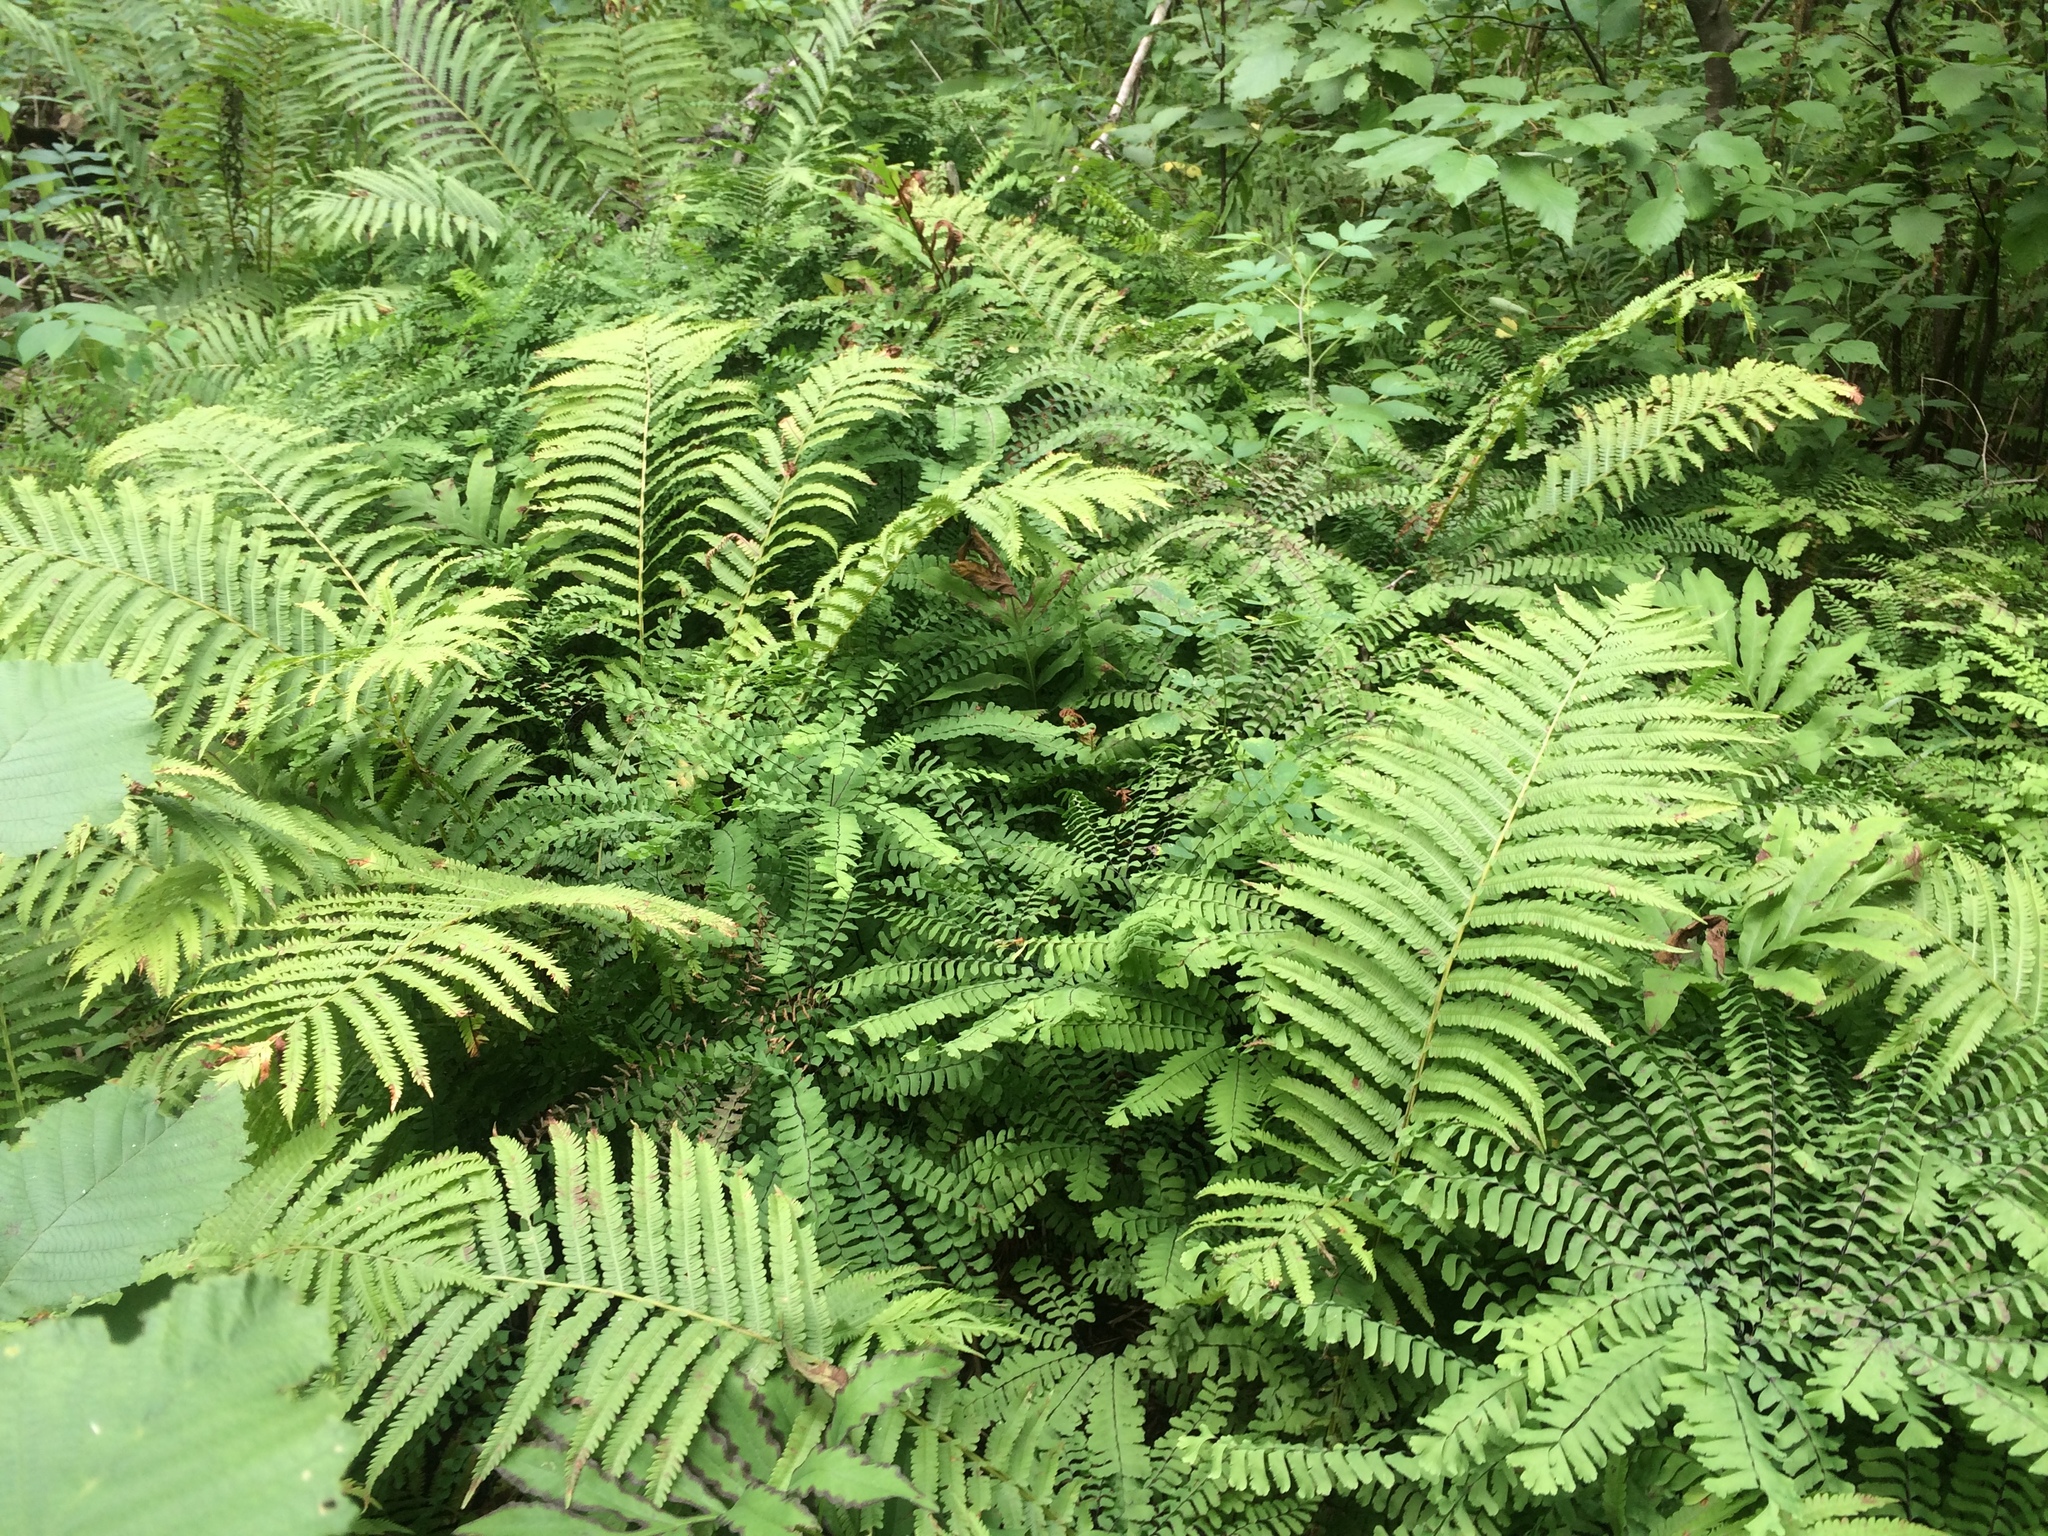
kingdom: Plantae
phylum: Tracheophyta
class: Polypodiopsida
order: Polypodiales
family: Onocleaceae
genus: Matteuccia
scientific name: Matteuccia struthiopteris
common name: Ostrich fern
